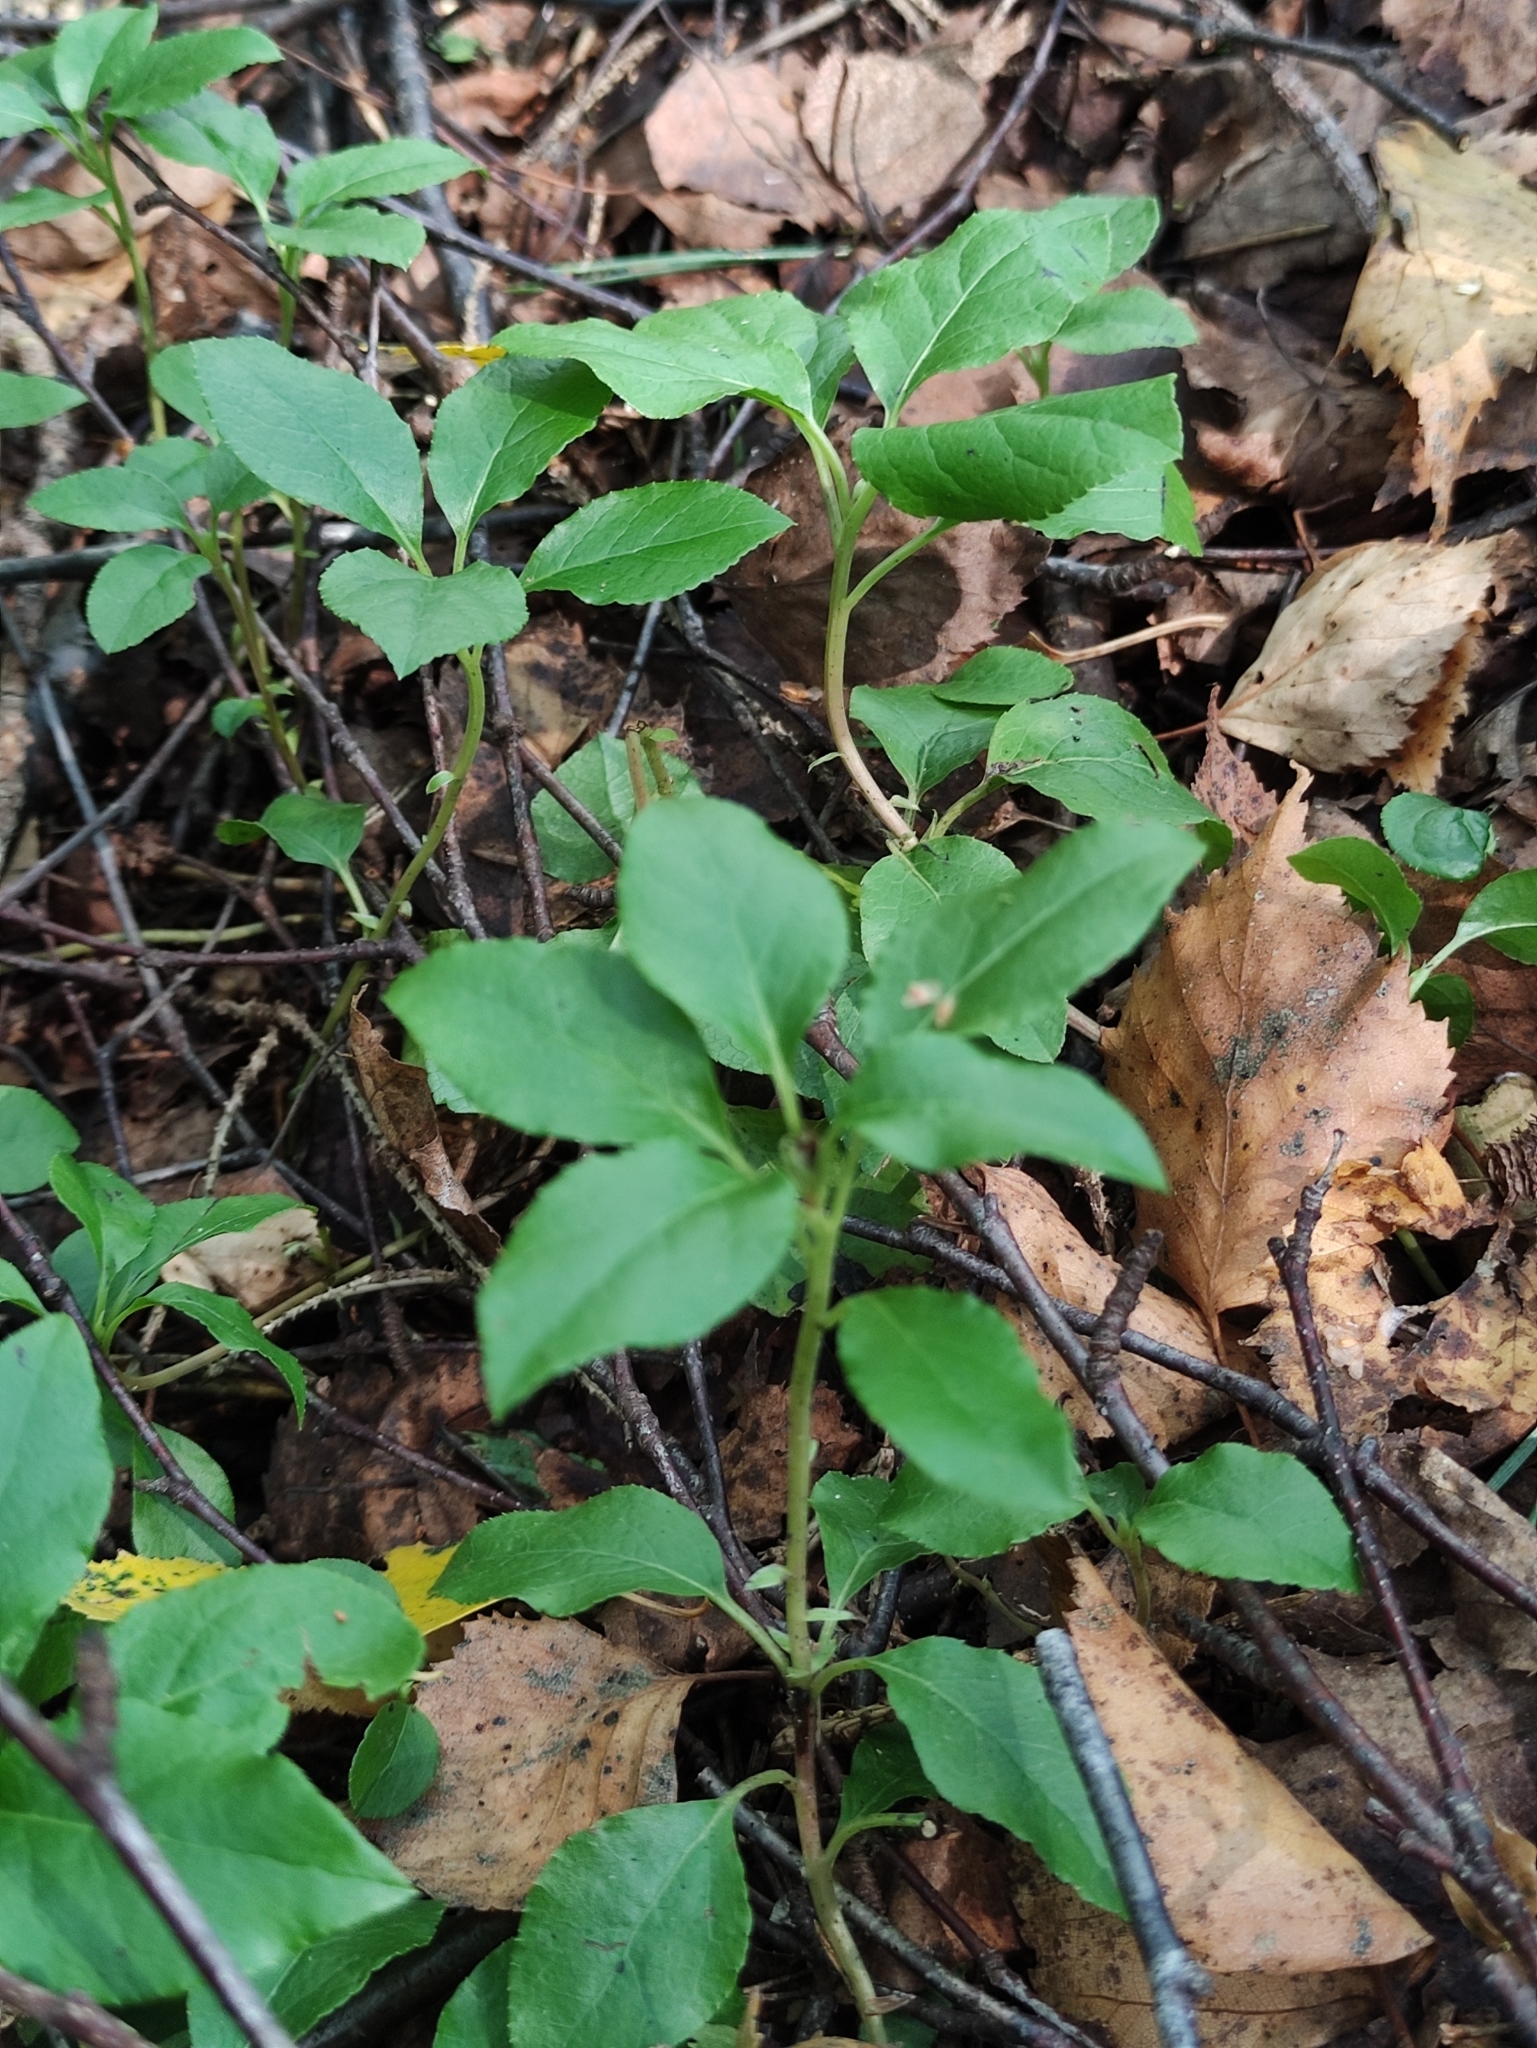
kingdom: Plantae
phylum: Tracheophyta
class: Magnoliopsida
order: Ericales
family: Ericaceae
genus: Orthilia
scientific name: Orthilia secunda
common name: One-sided orthilia
